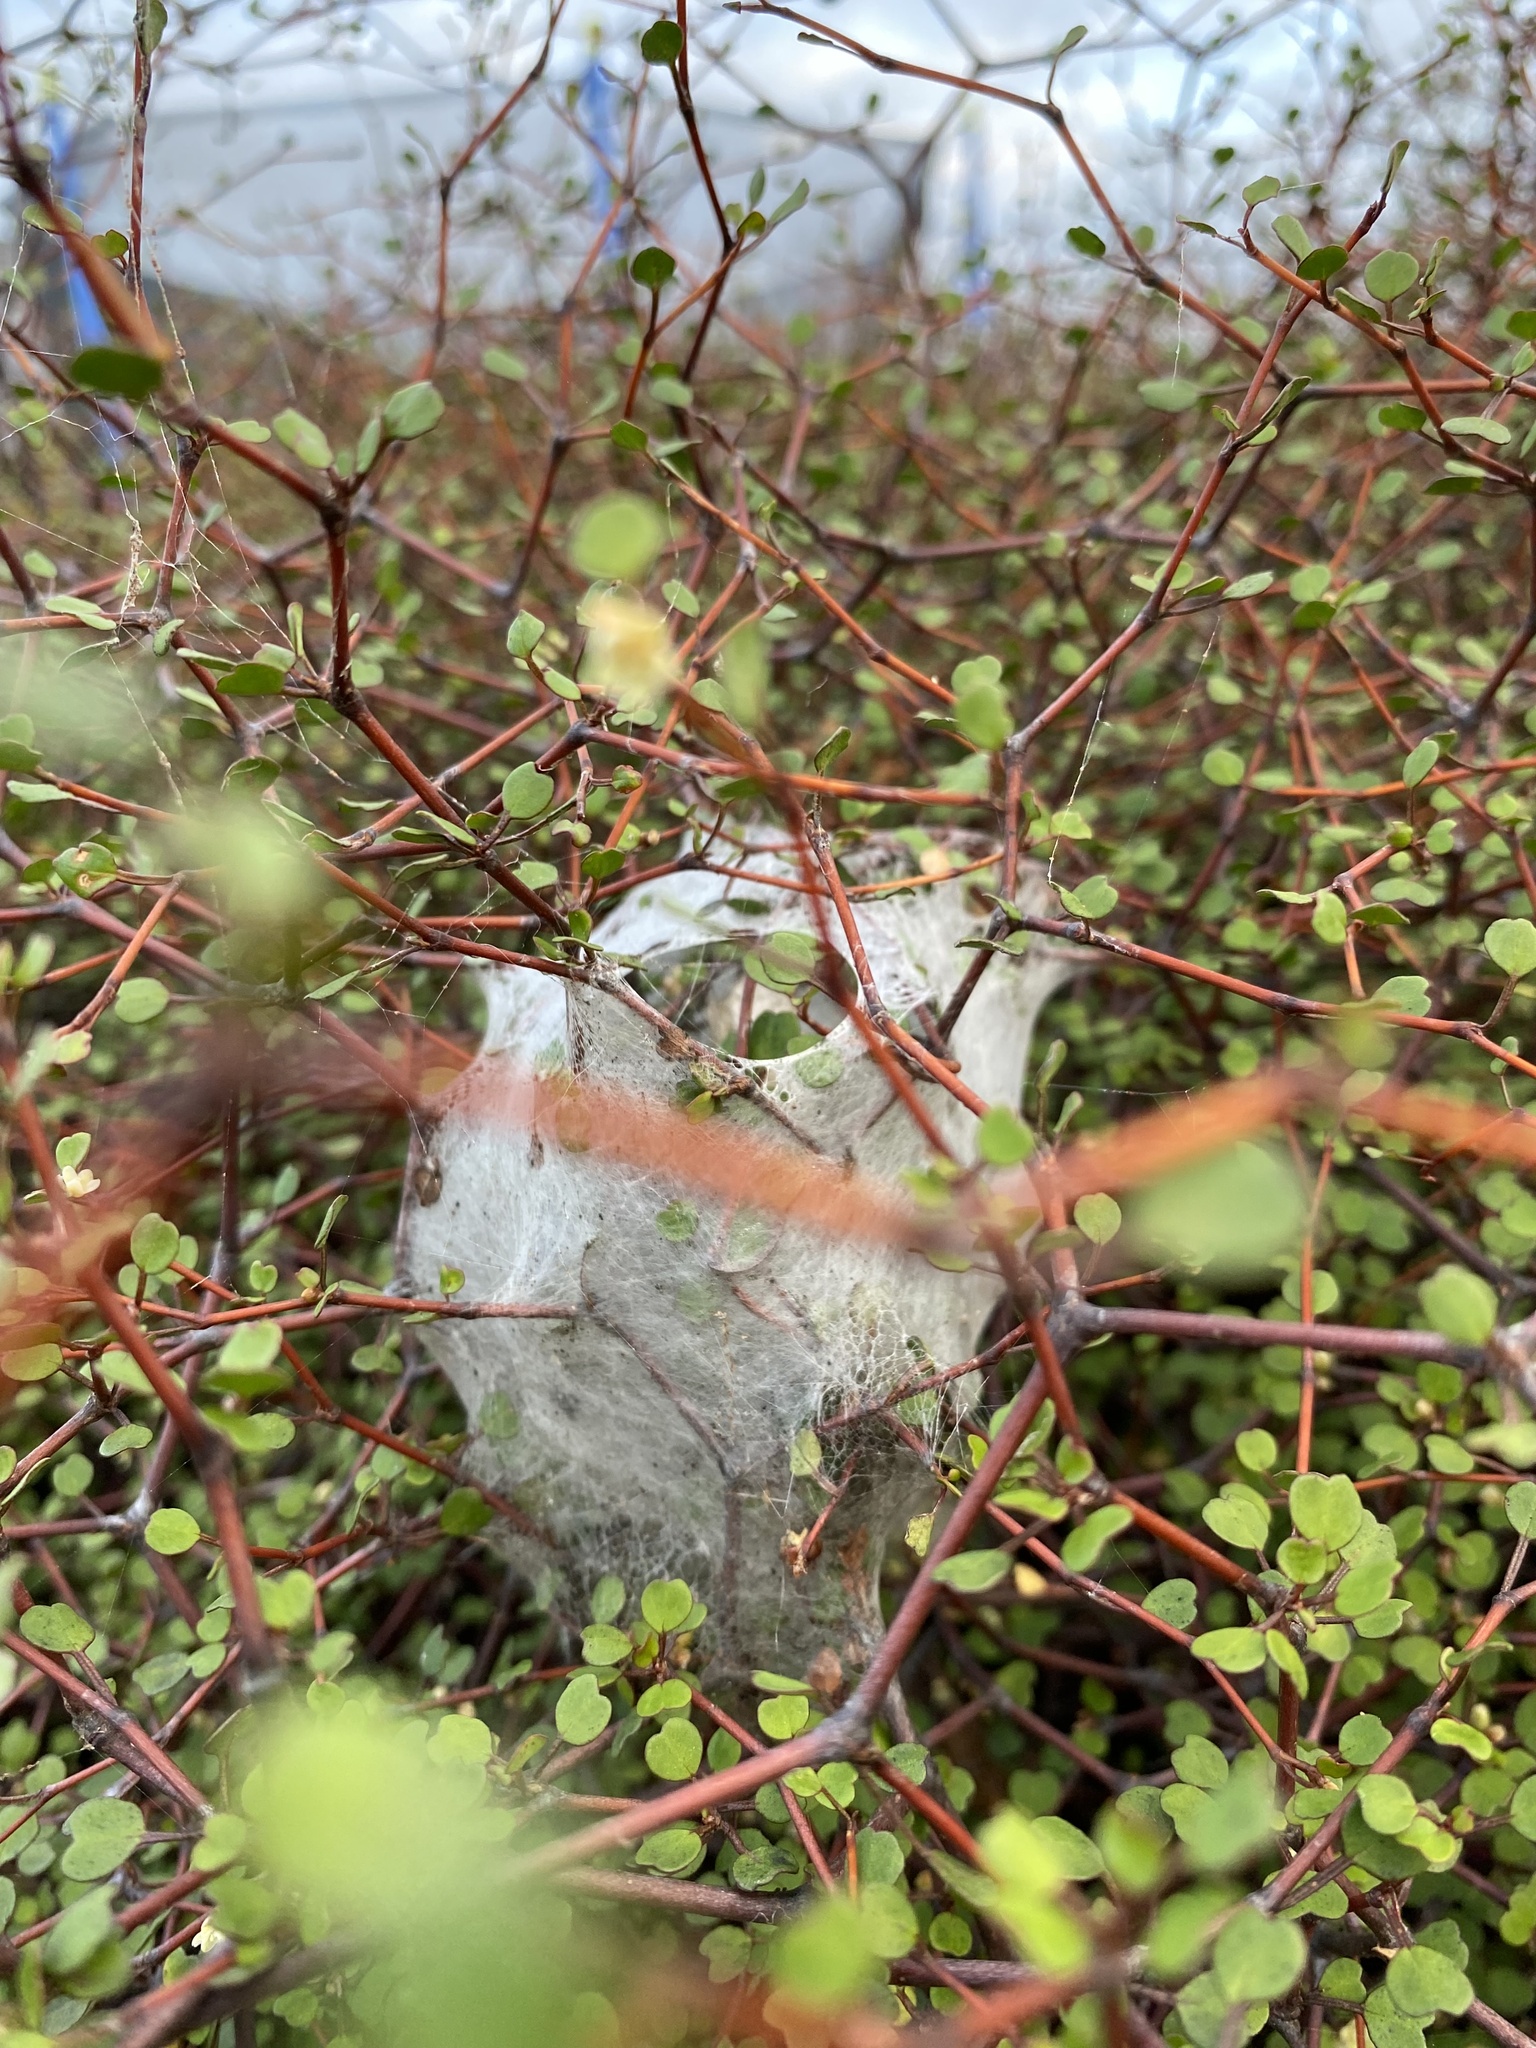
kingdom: Animalia
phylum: Arthropoda
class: Arachnida
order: Araneae
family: Pisauridae
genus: Dolomedes
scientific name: Dolomedes
